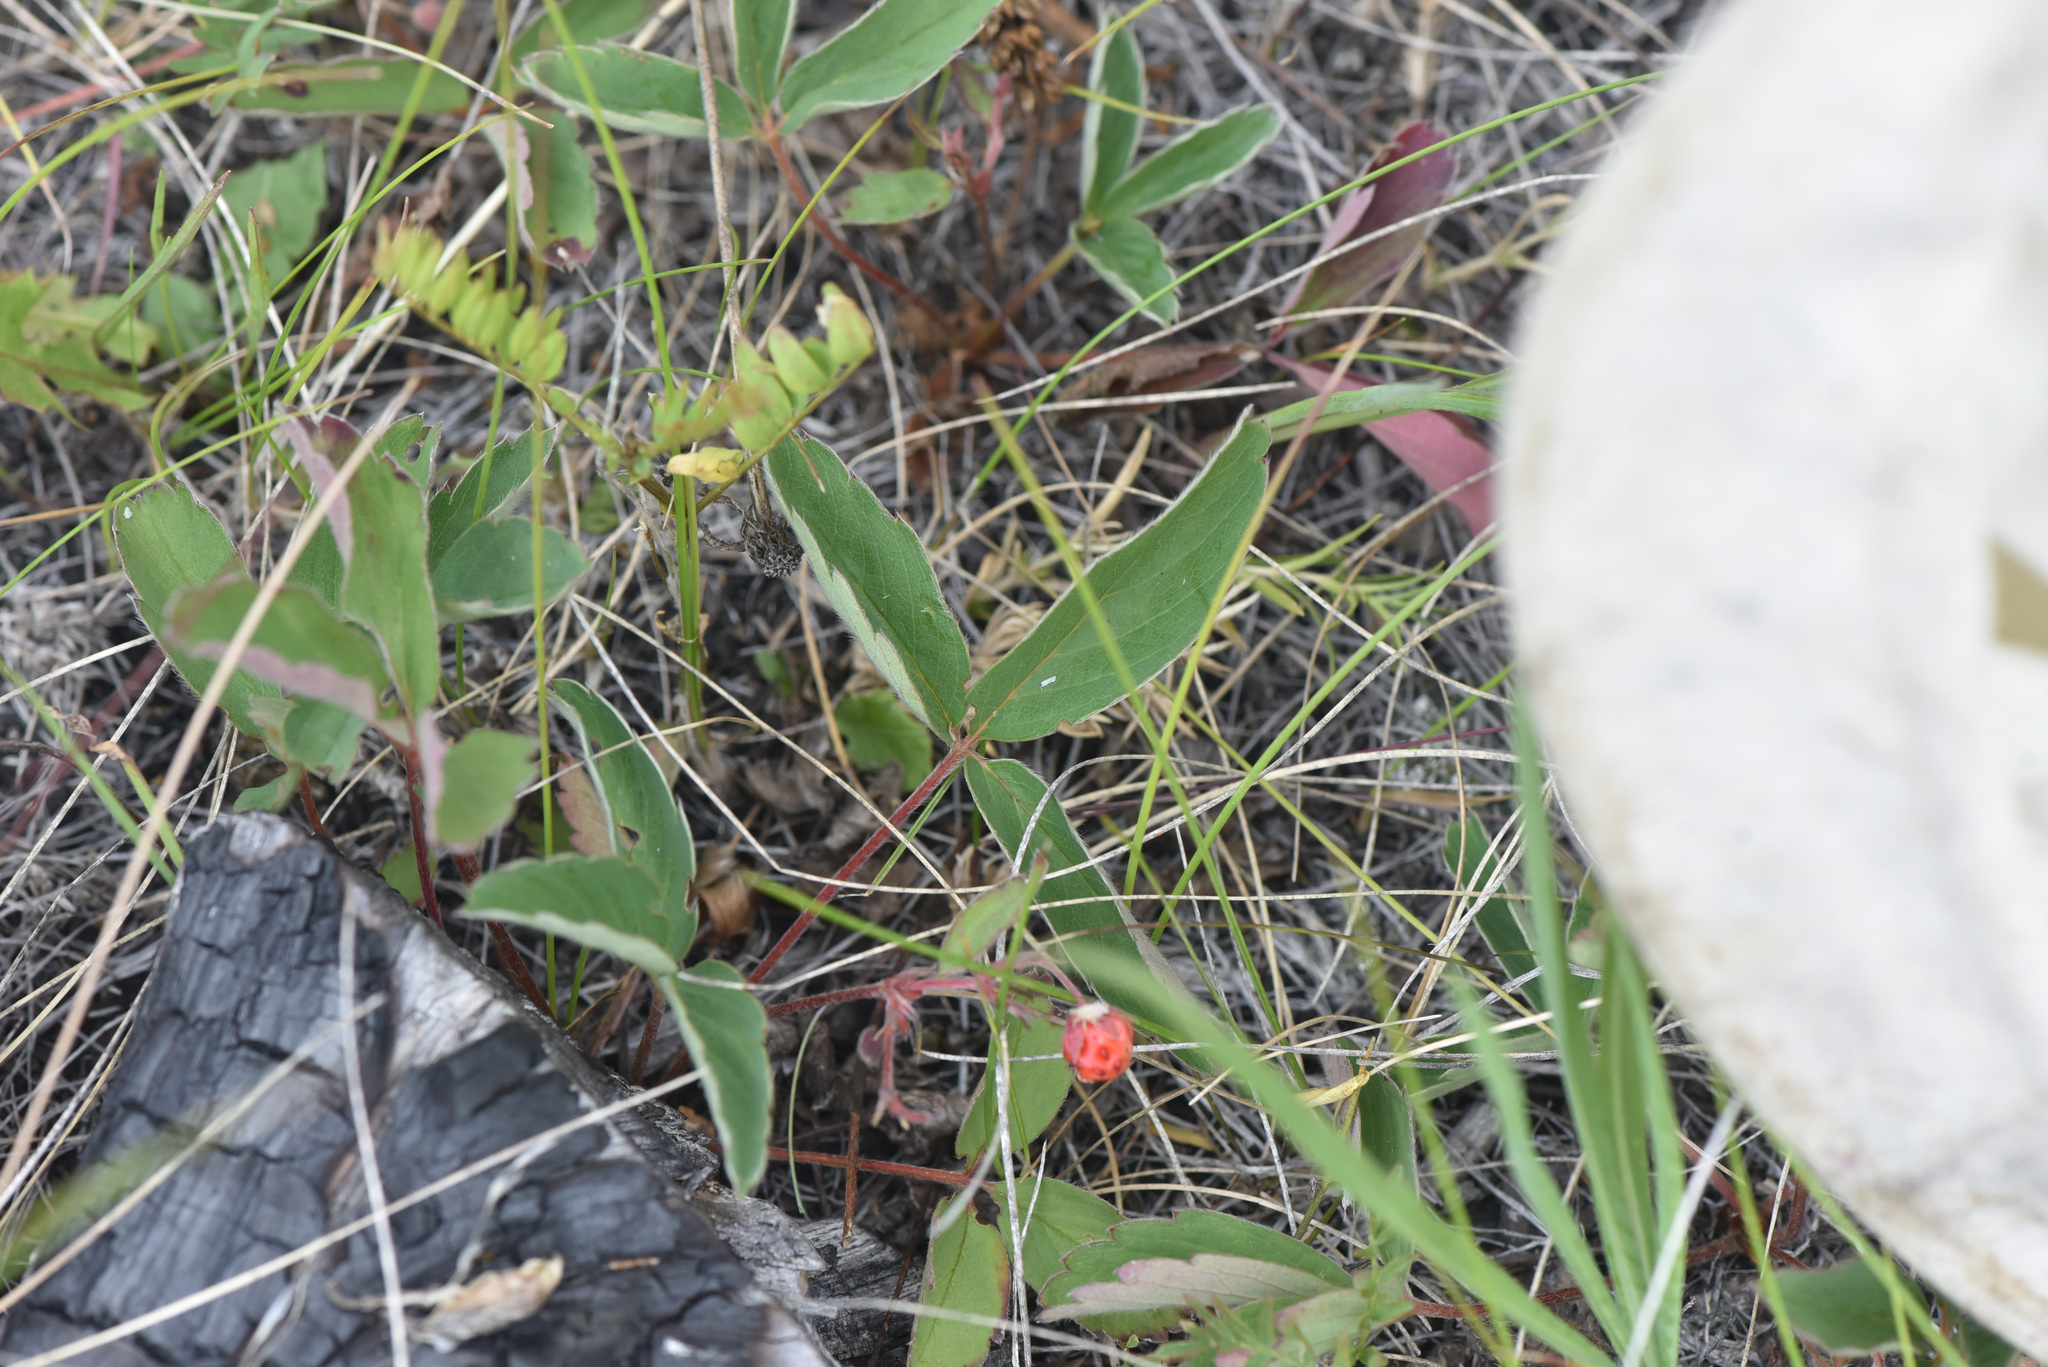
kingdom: Plantae
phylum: Tracheophyta
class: Magnoliopsida
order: Rosales
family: Rosaceae
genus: Fragaria
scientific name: Fragaria virginiana
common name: Thickleaved wild strawberry
